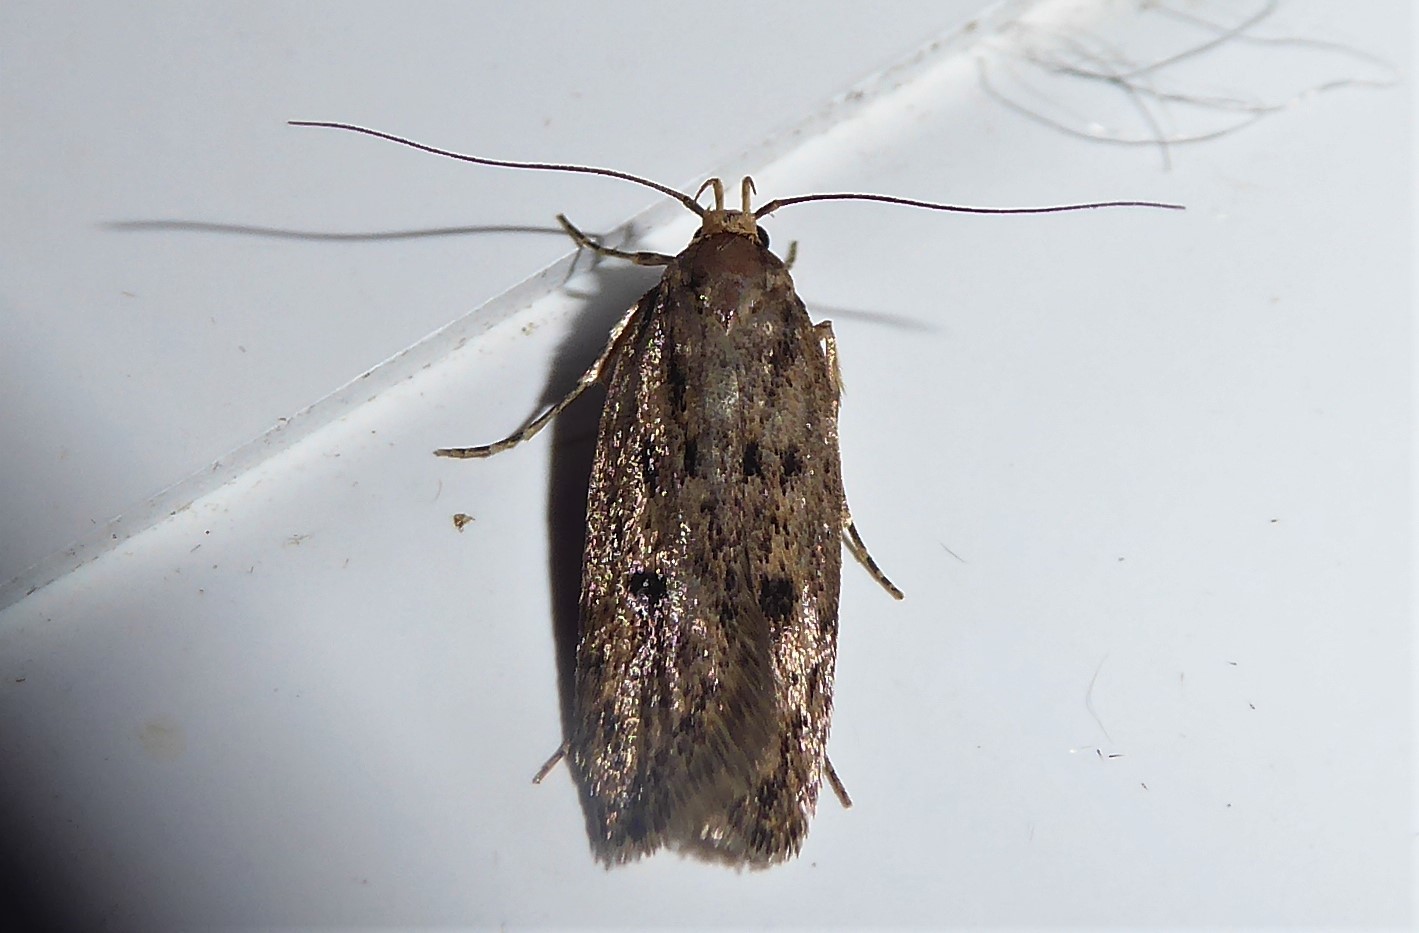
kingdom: Animalia
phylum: Arthropoda
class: Insecta
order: Lepidoptera
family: Oecophoridae
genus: Hofmannophila
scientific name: Hofmannophila pseudospretella
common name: Brown house moth
